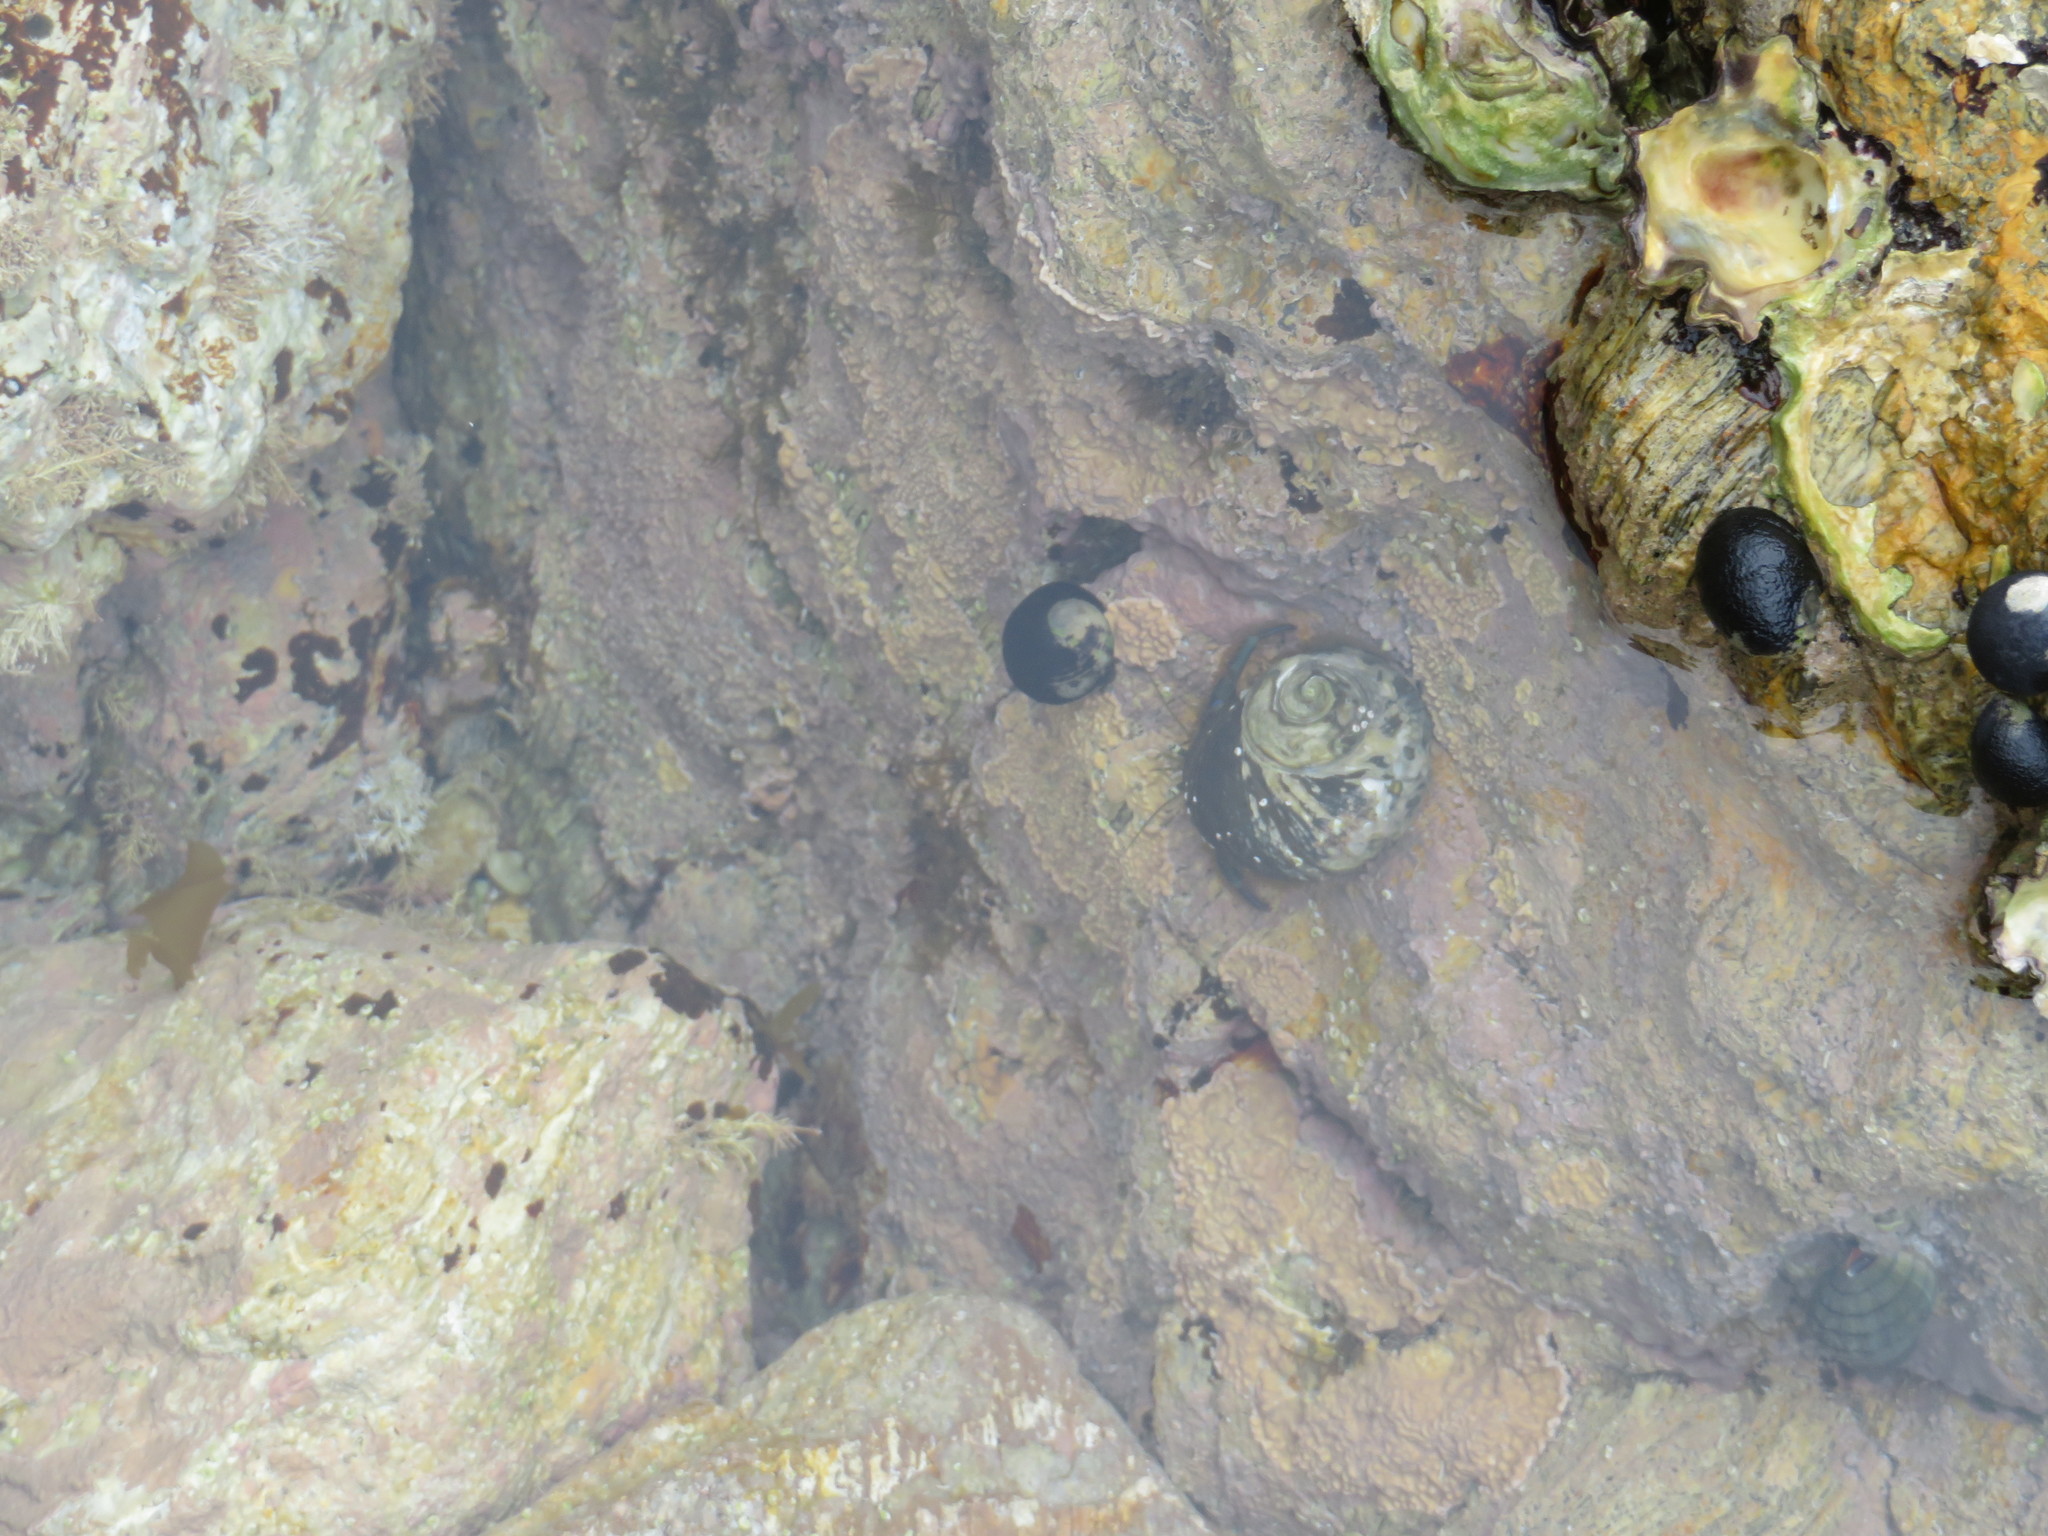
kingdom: Animalia
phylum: Mollusca
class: Gastropoda
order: Trochida
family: Turbinidae
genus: Lunella
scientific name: Lunella smaragda
